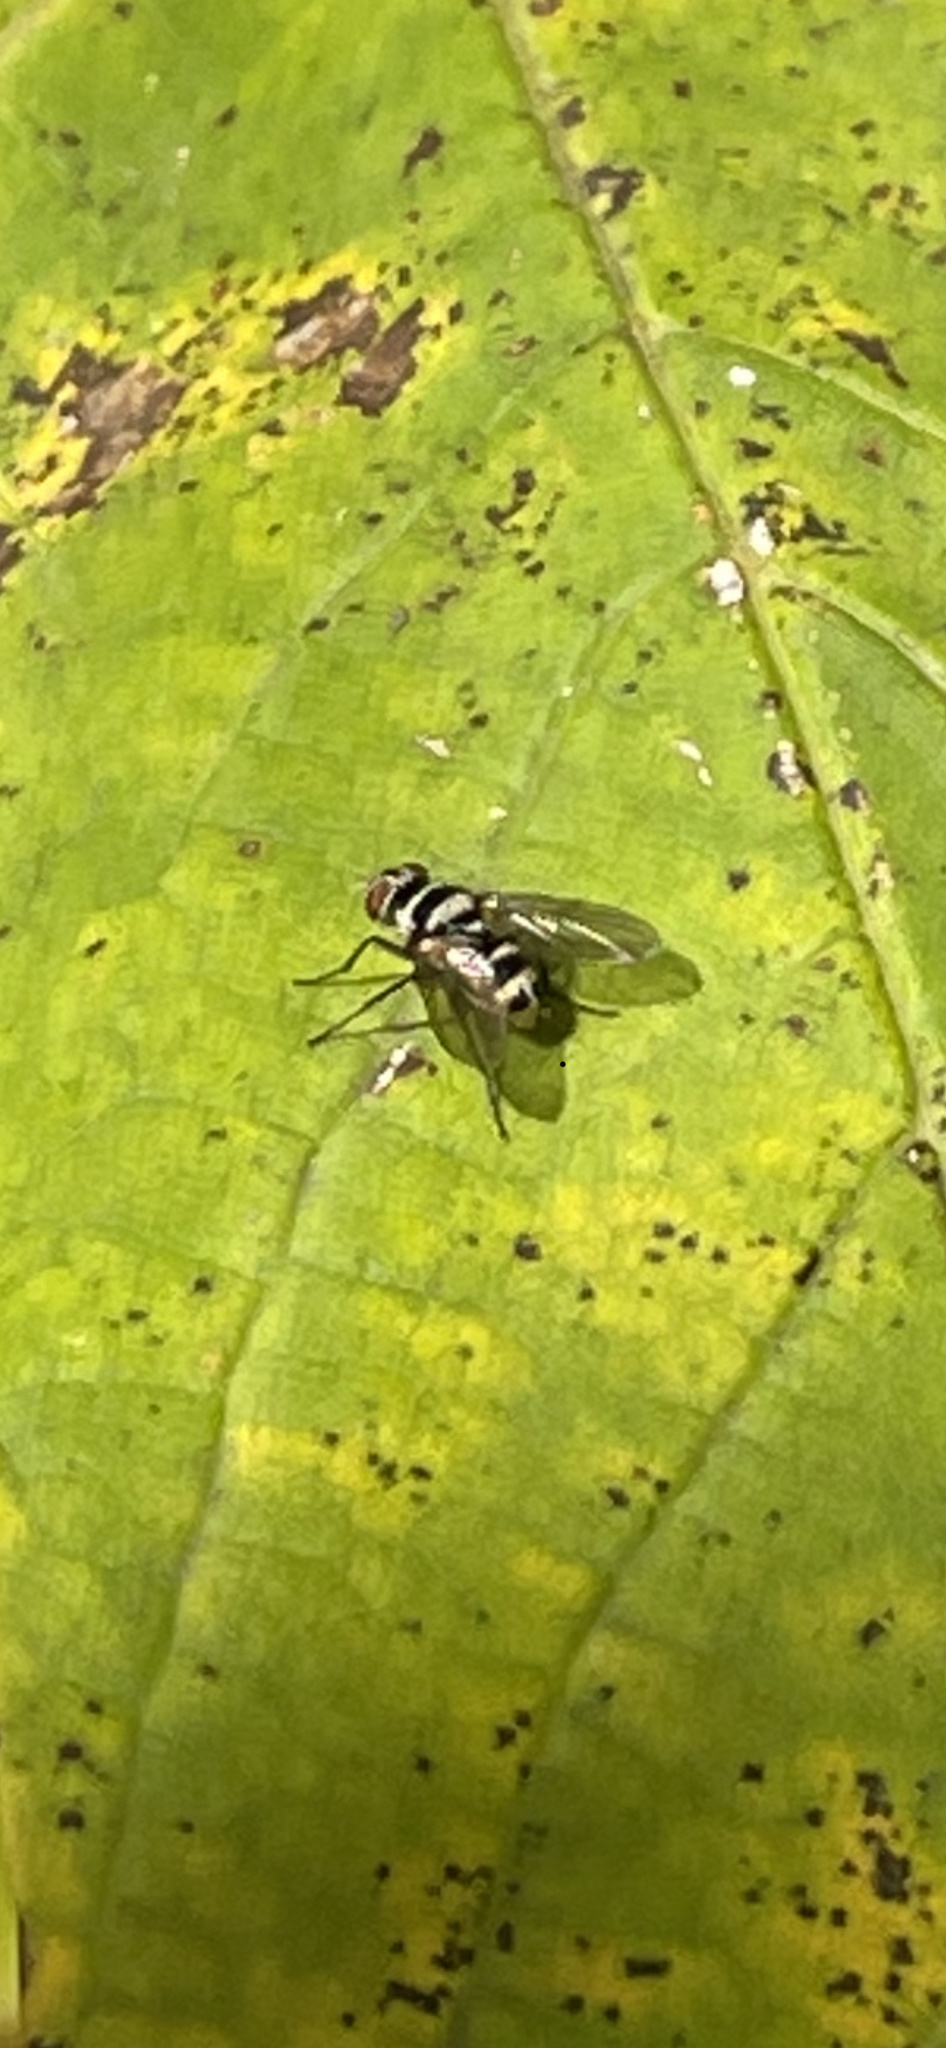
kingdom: Animalia
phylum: Arthropoda
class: Insecta
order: Diptera
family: Tachinidae
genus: Trigonospila
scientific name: Trigonospila brevifacies
